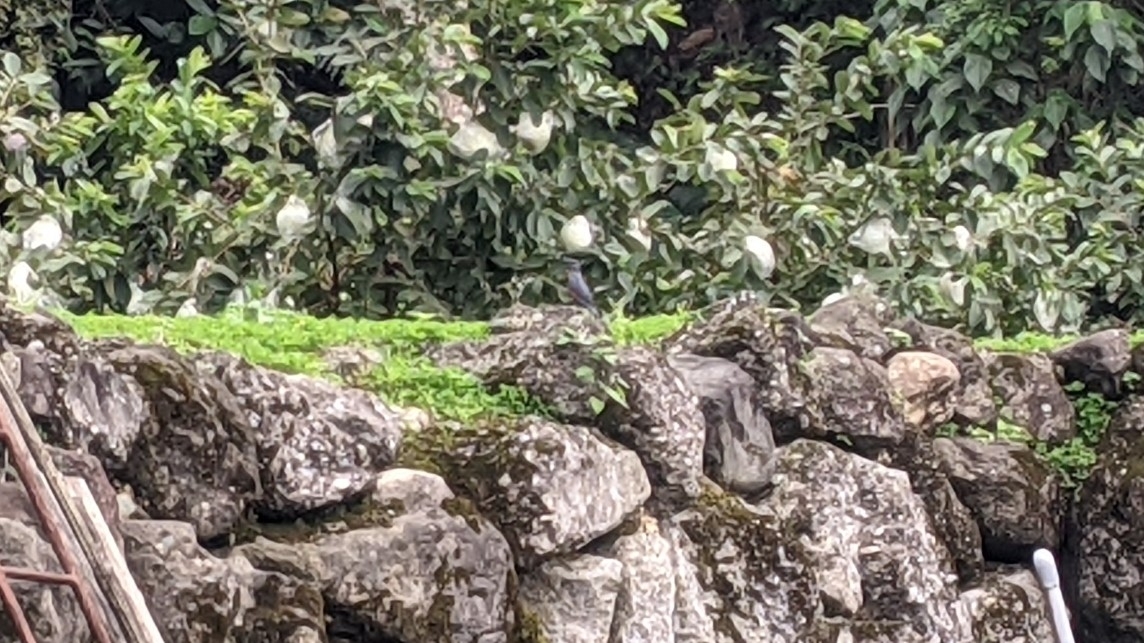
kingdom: Animalia
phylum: Chordata
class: Aves
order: Passeriformes
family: Muscicapidae
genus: Monticola
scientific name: Monticola solitarius
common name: Blue rock thrush
